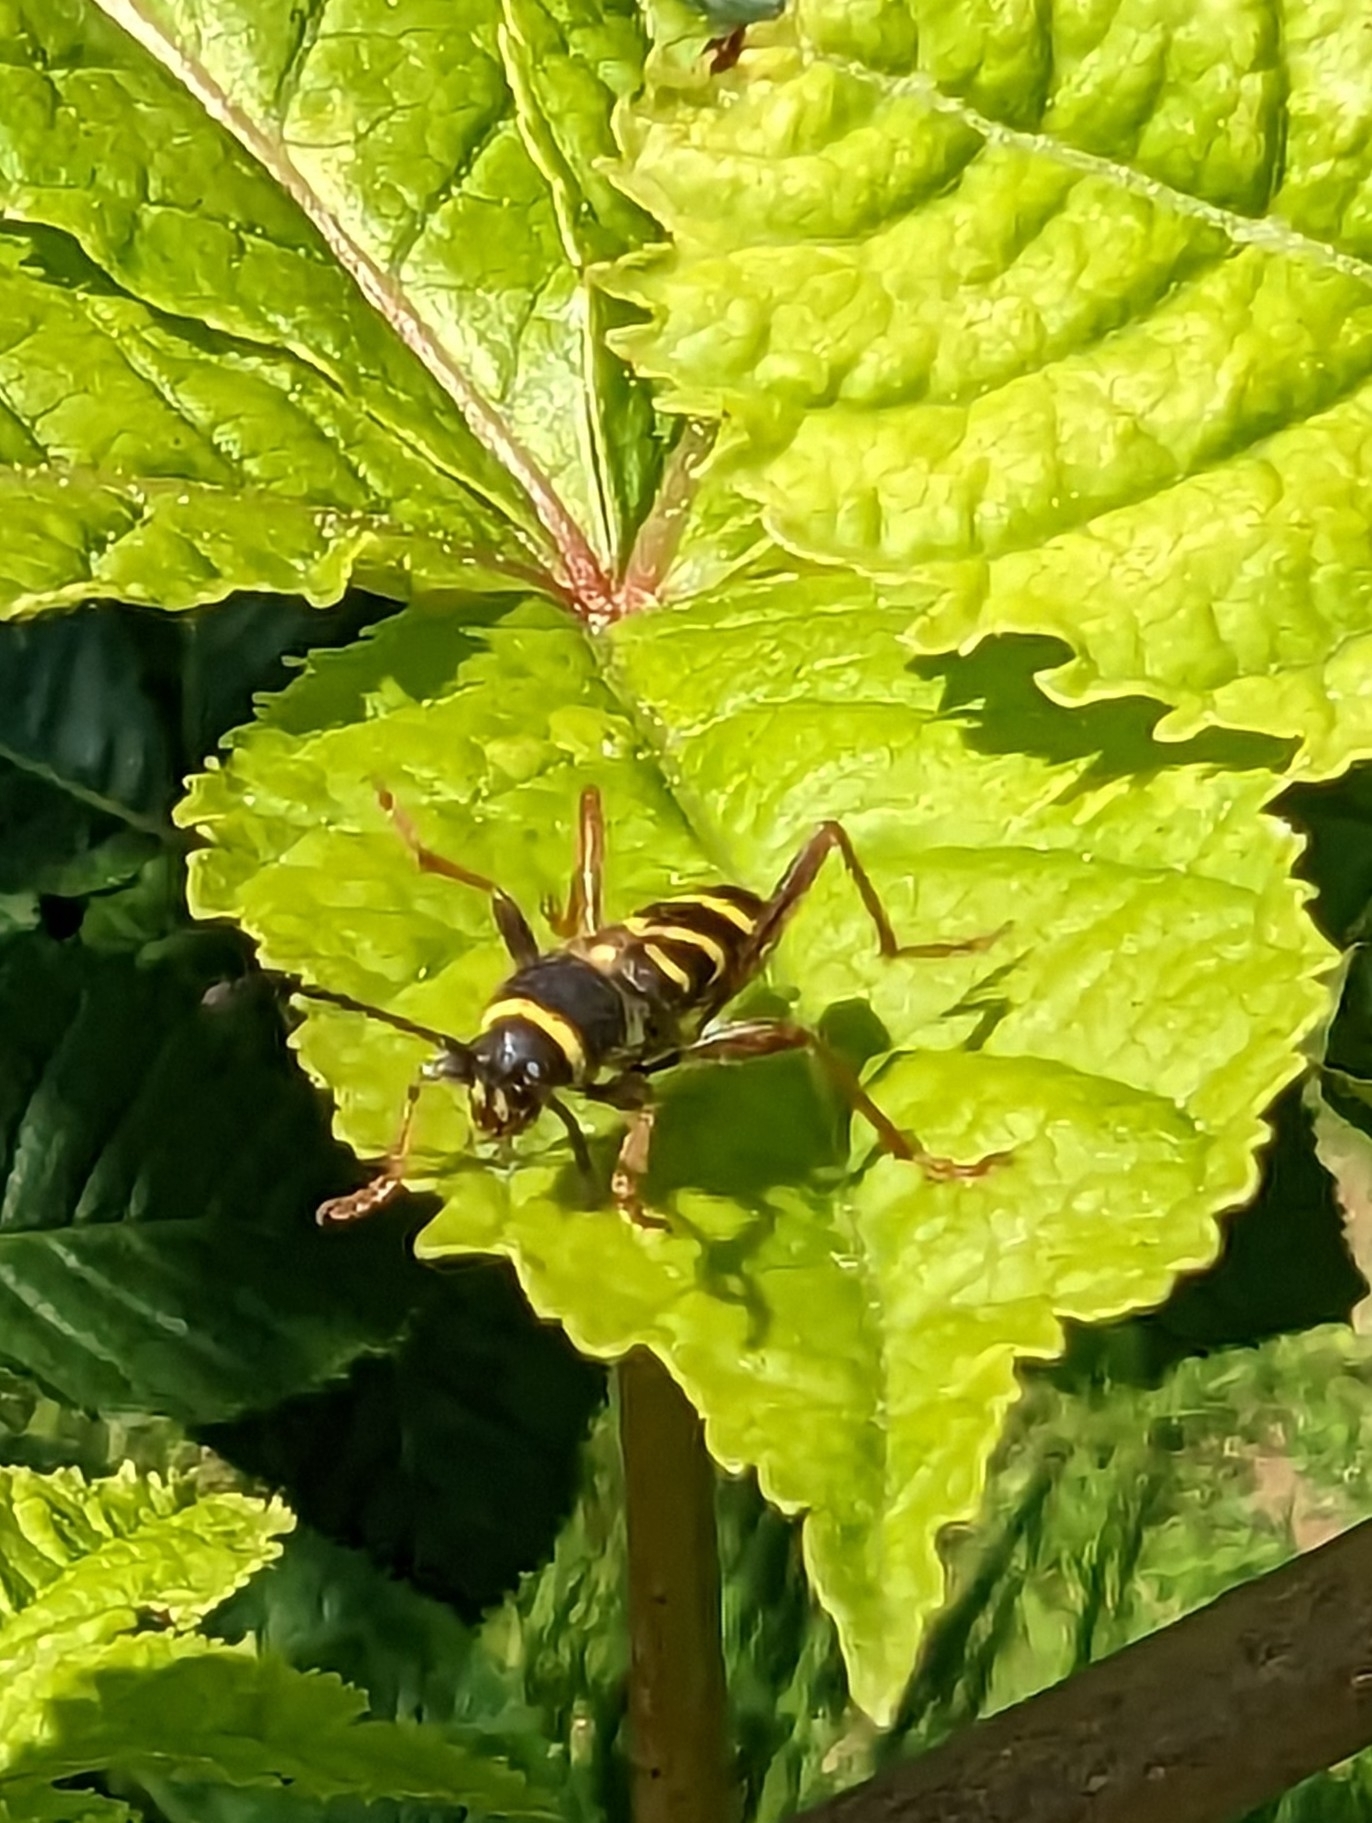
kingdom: Animalia
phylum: Arthropoda
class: Insecta
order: Coleoptera
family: Cerambycidae
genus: Clytus
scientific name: Clytus arietis
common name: Wasp beetle
